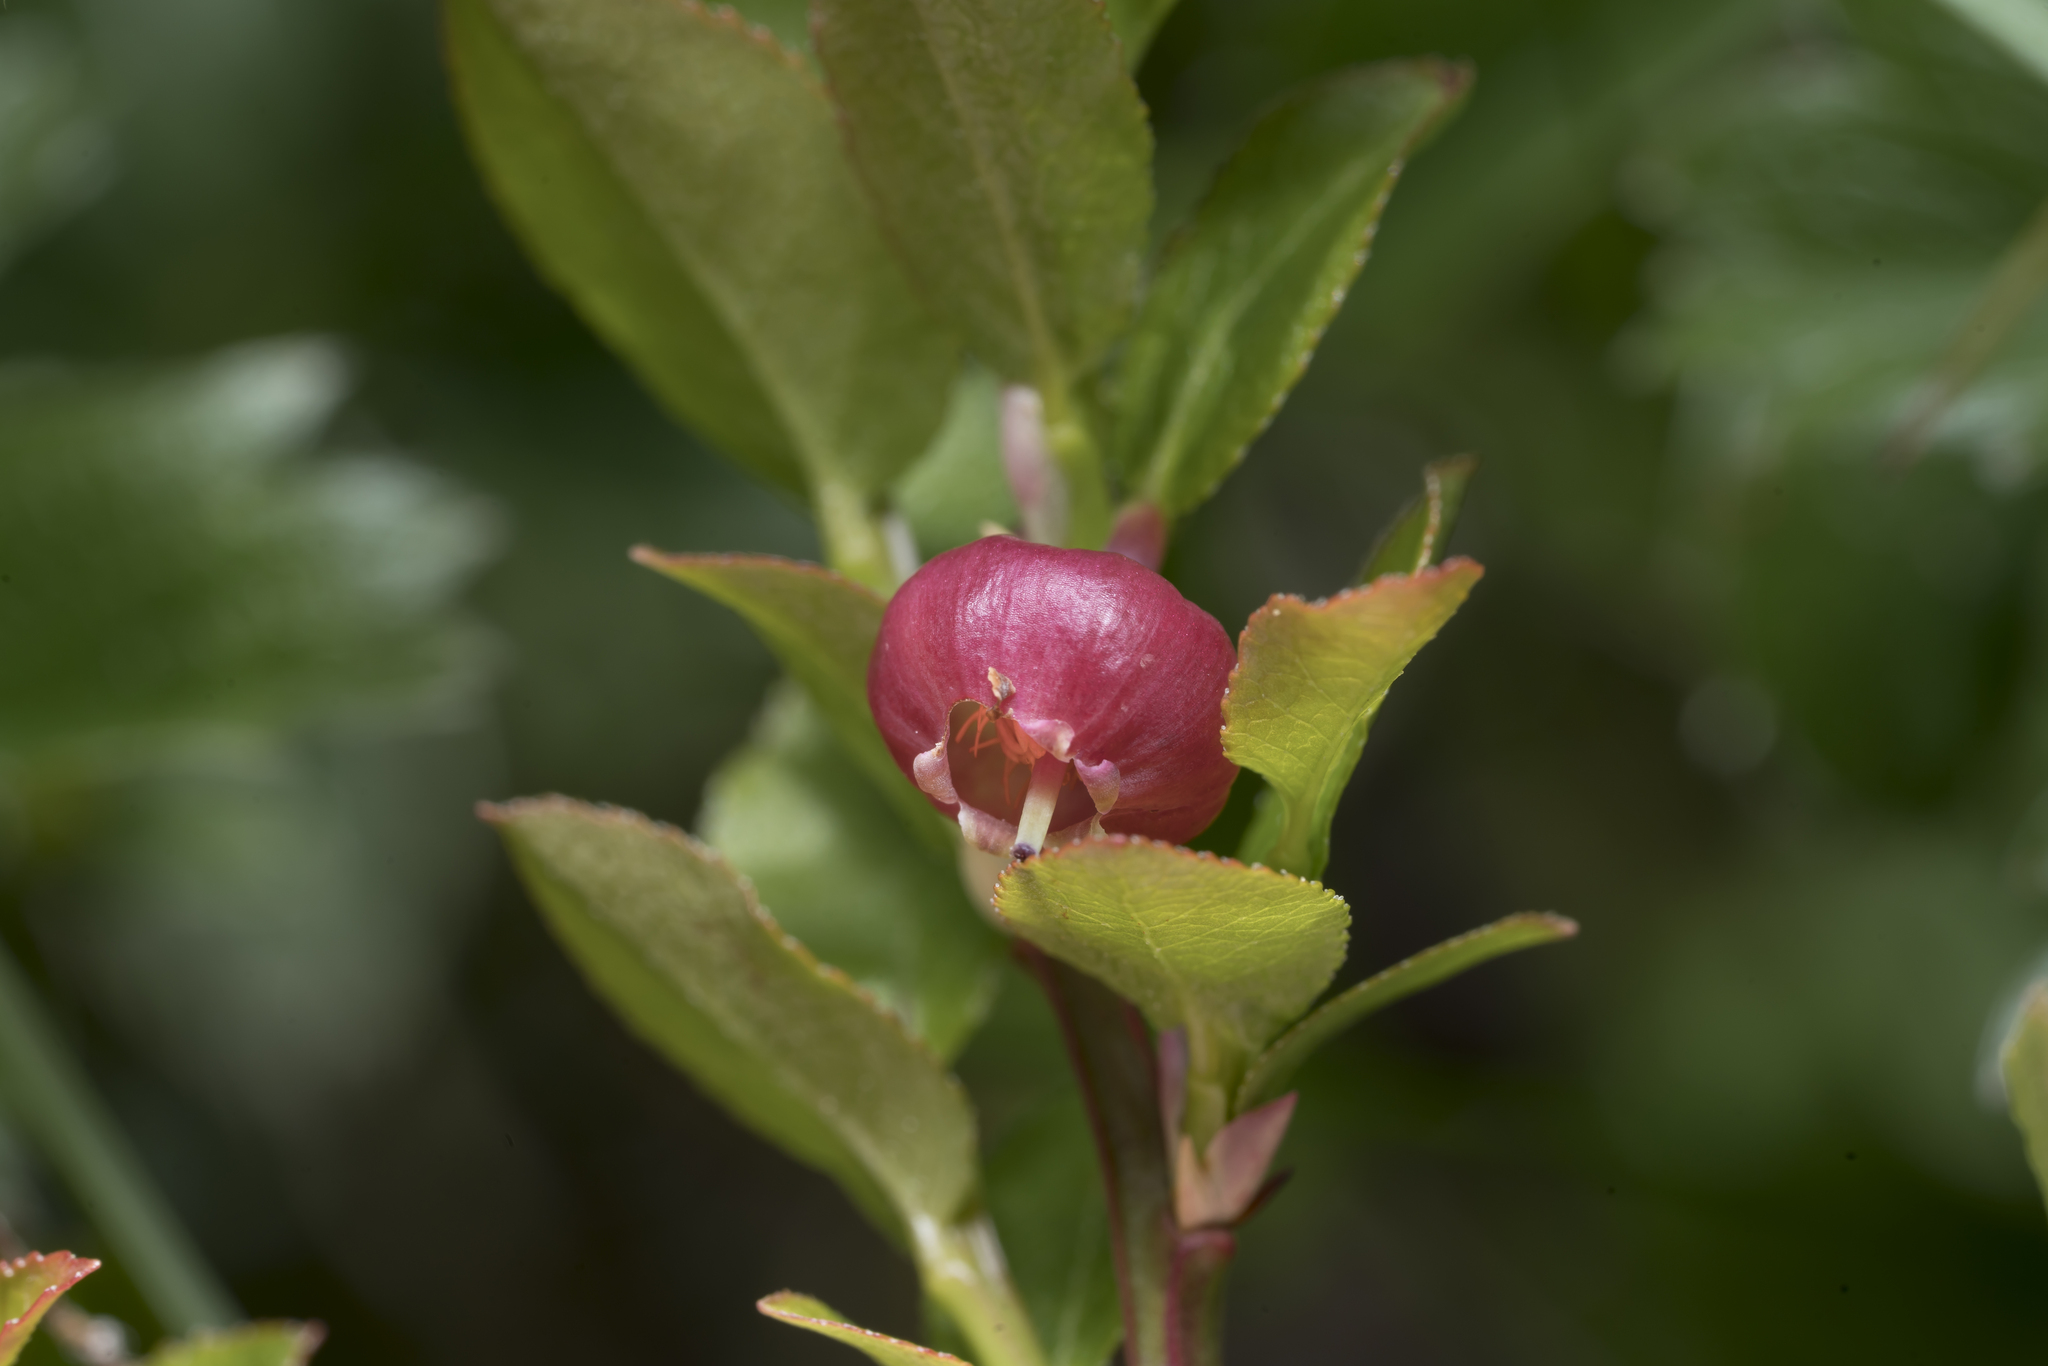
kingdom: Plantae
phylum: Tracheophyta
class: Magnoliopsida
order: Ericales
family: Ericaceae
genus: Vaccinium
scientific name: Vaccinium myrtillus
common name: Bilberry
